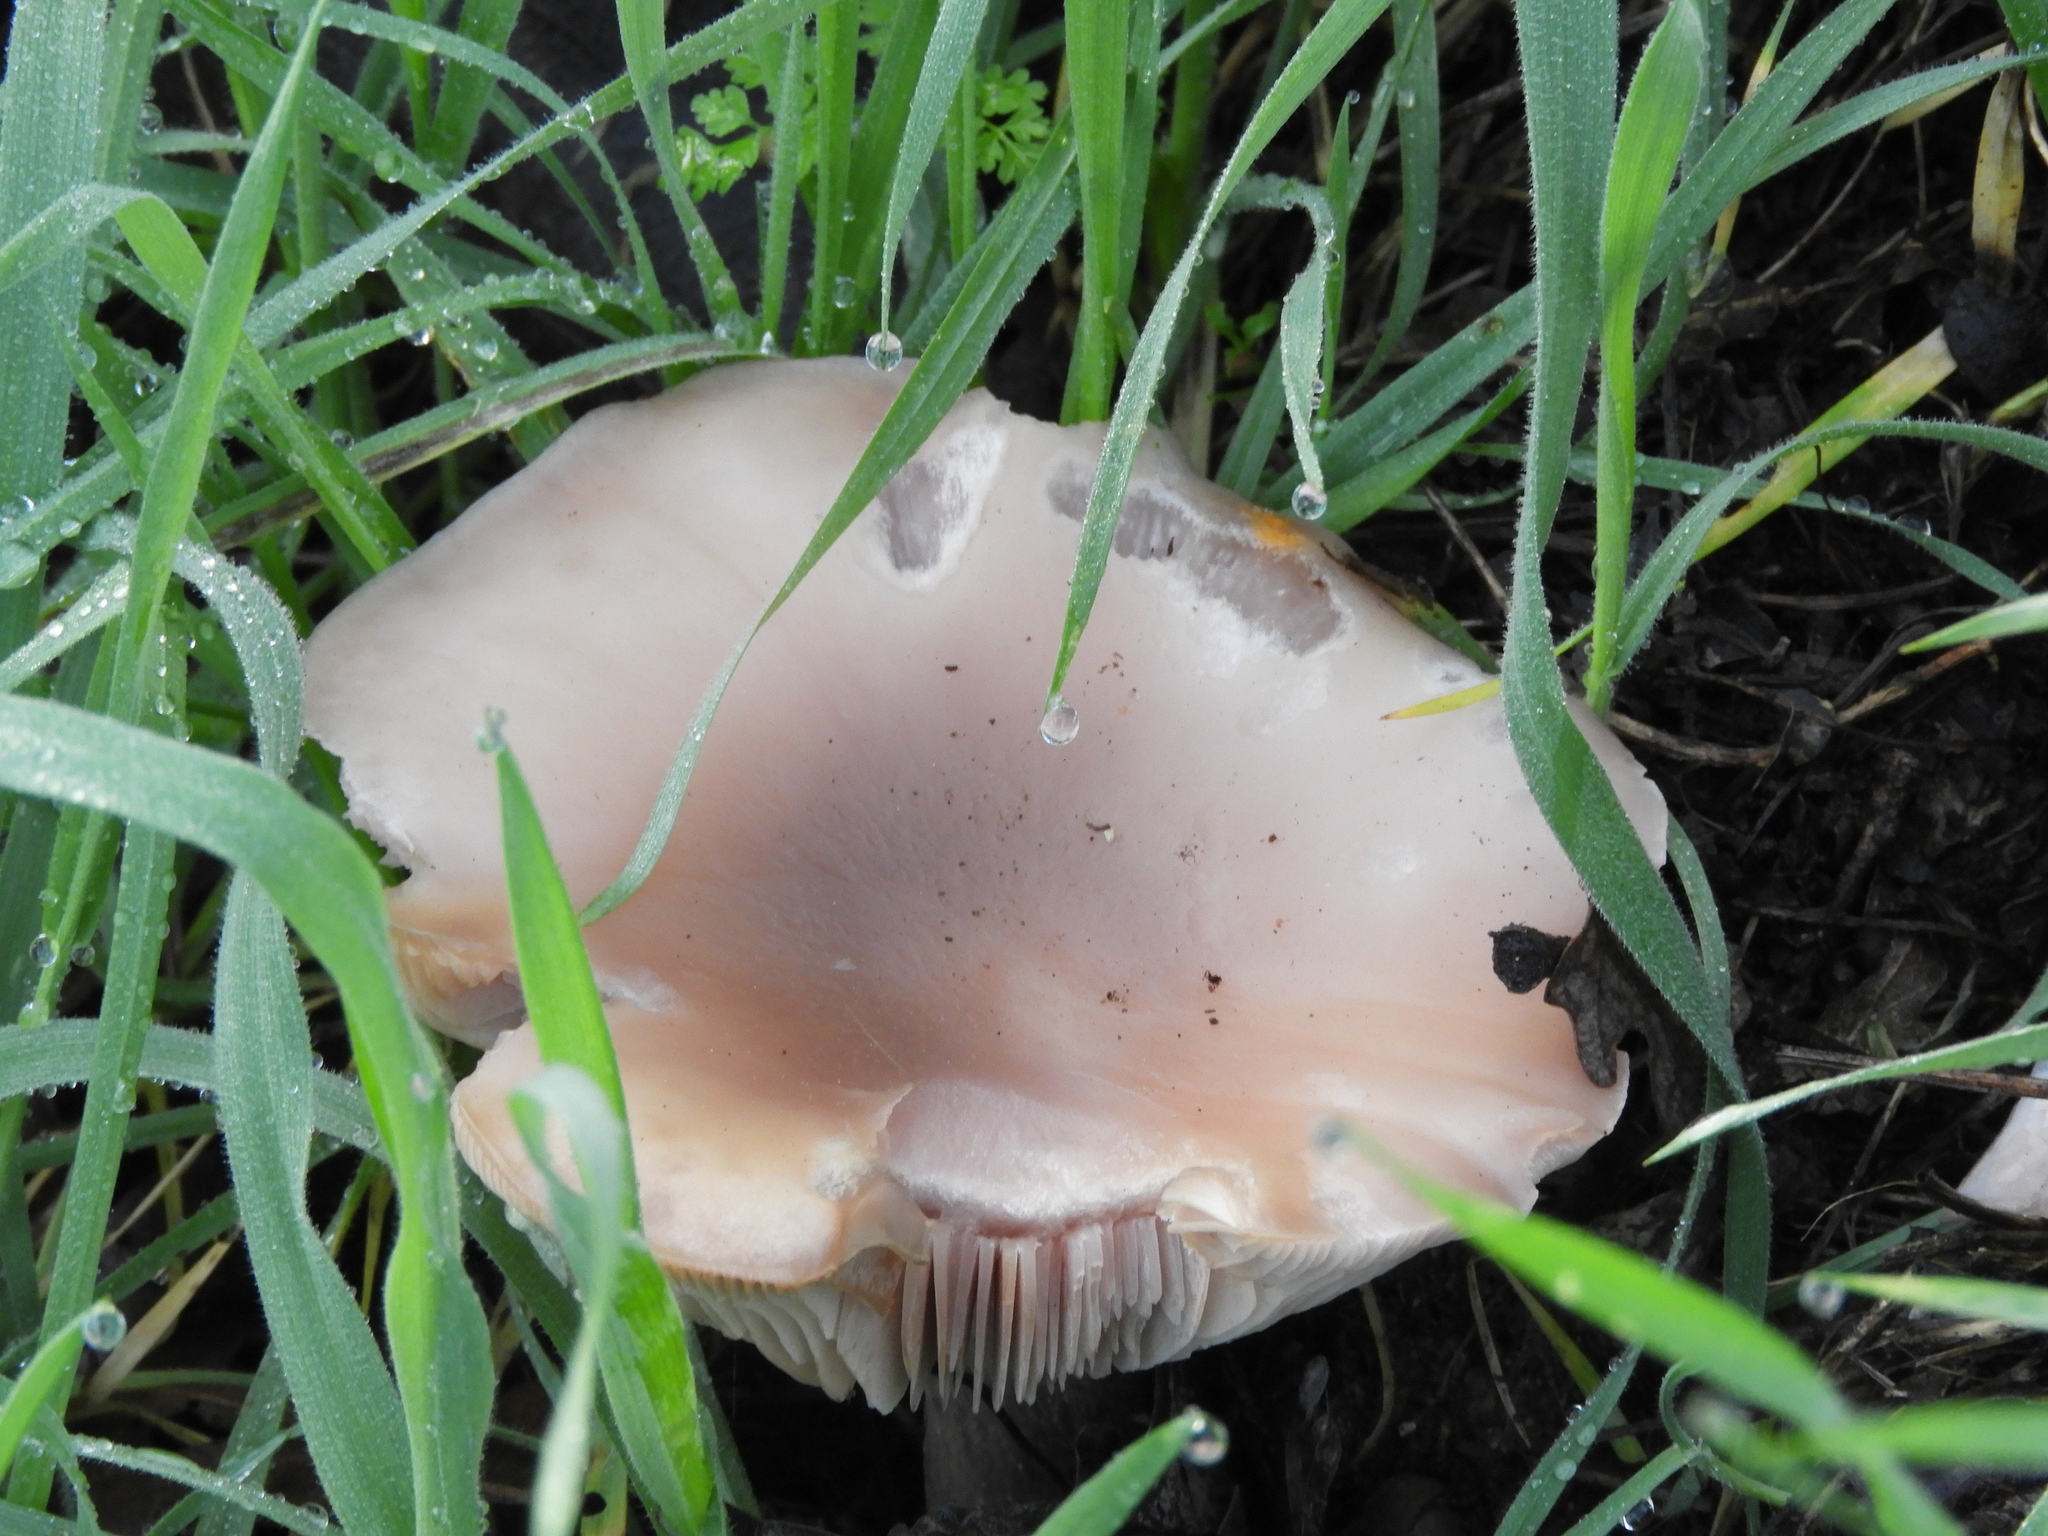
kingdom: Fungi
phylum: Basidiomycota
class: Agaricomycetes
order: Agaricales
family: Tricholomataceae
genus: Collybia
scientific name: Collybia
